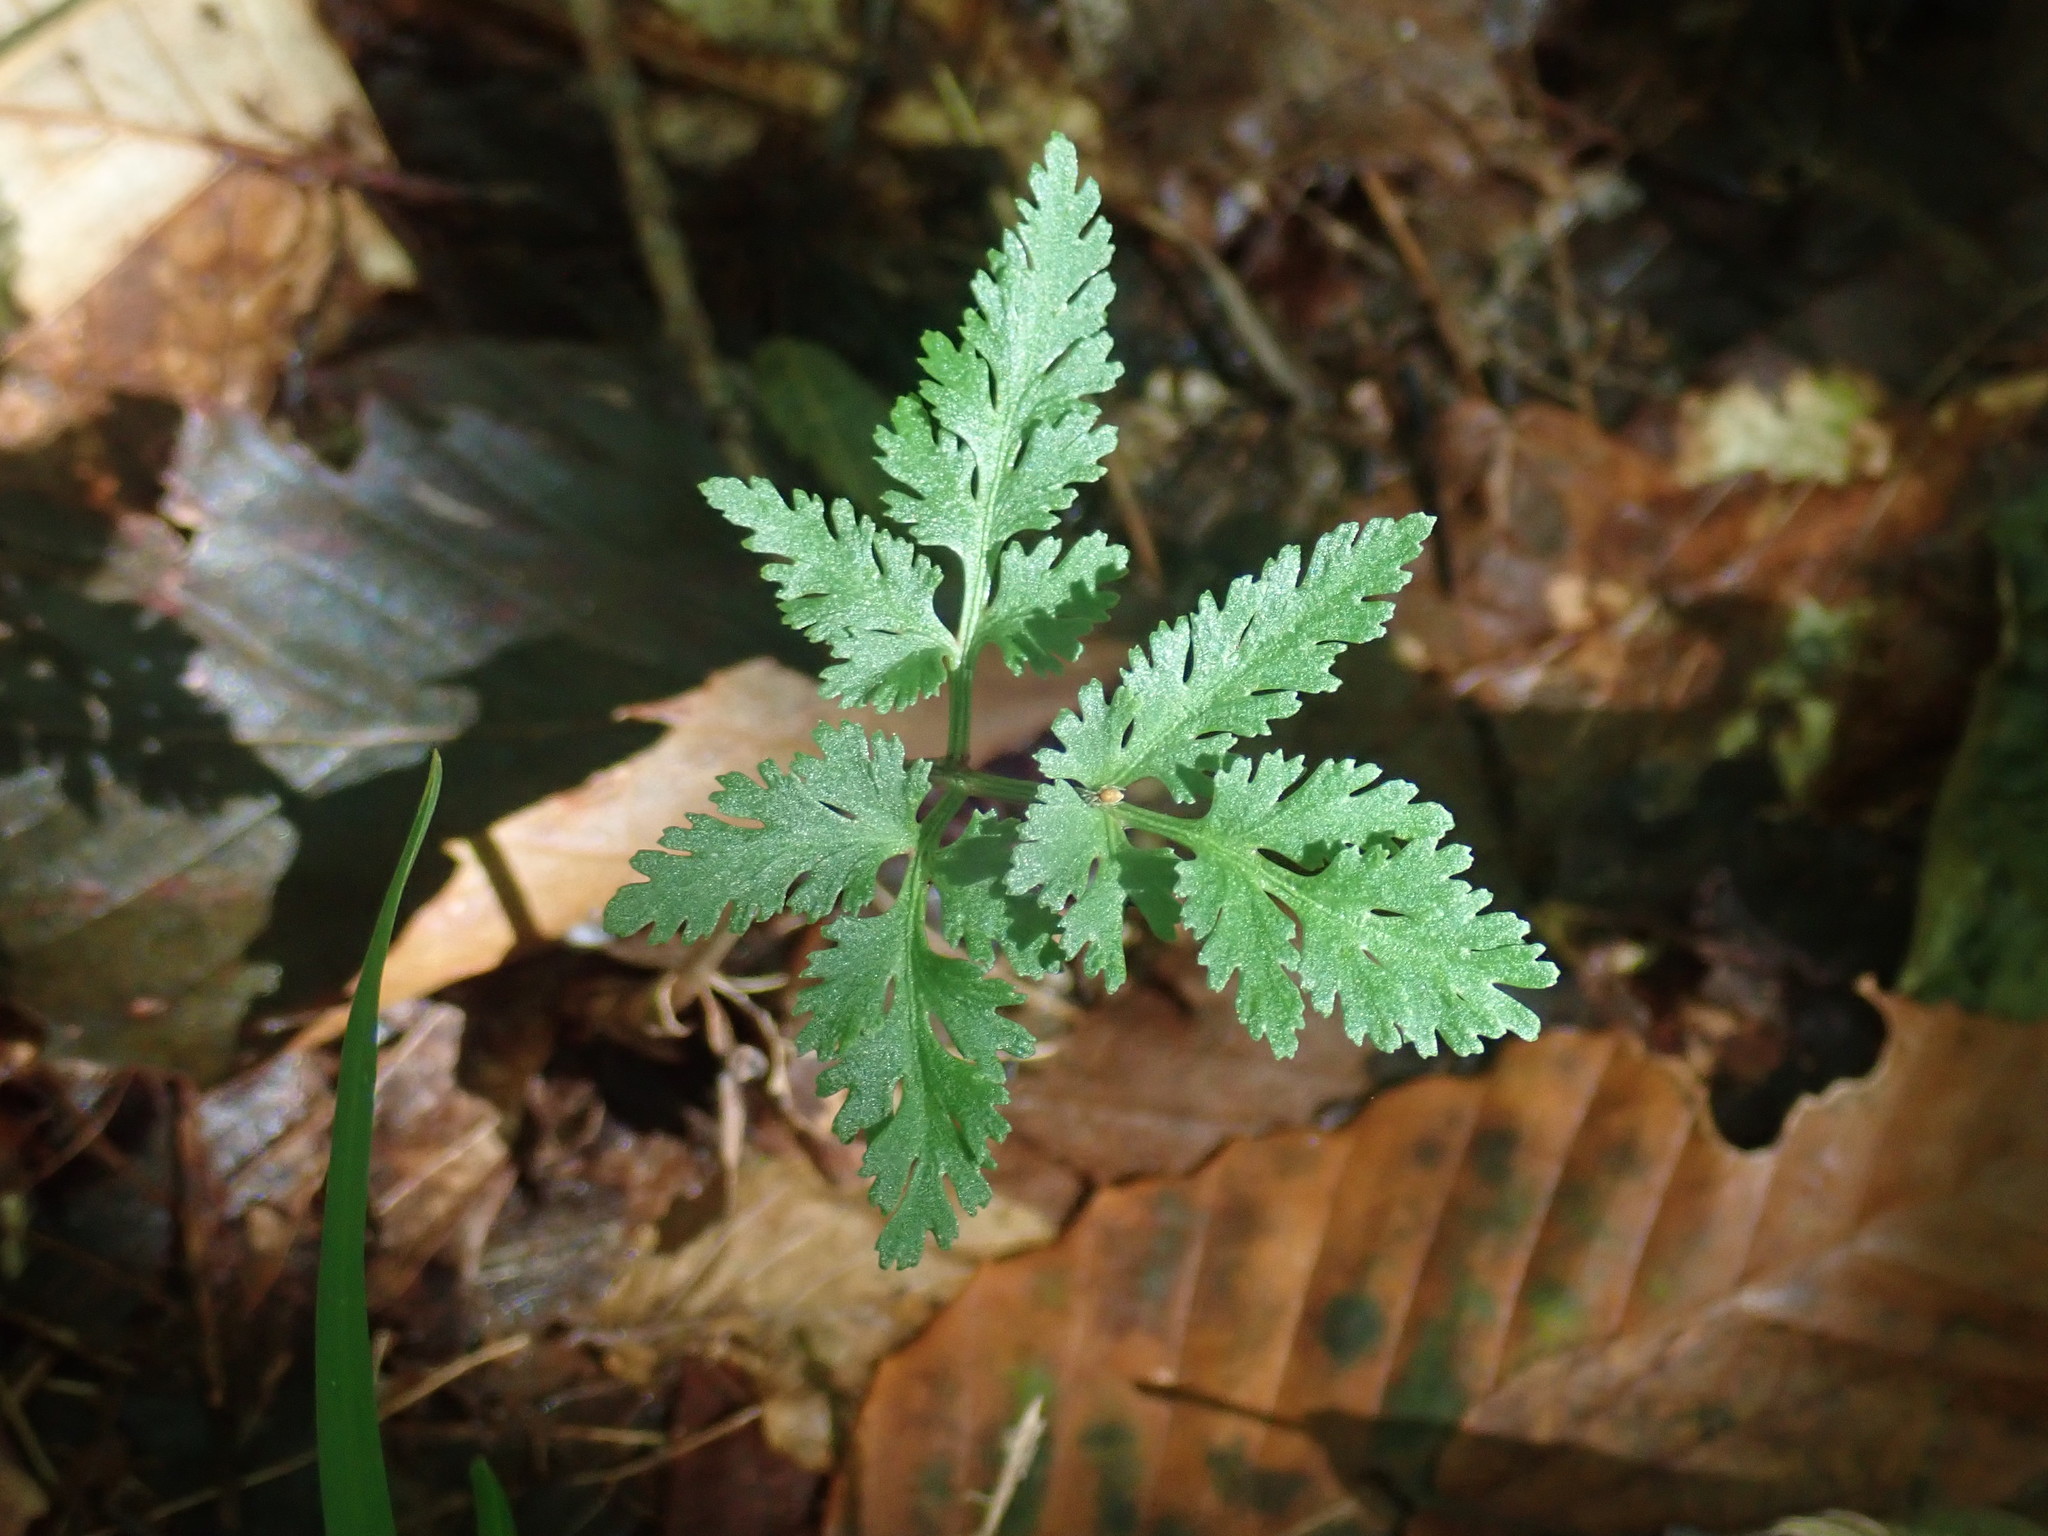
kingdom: Plantae
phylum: Tracheophyta
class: Polypodiopsida
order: Ophioglossales
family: Ophioglossaceae
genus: Sceptridium
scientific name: Sceptridium dissectum
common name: Cut-leaved grapefern
